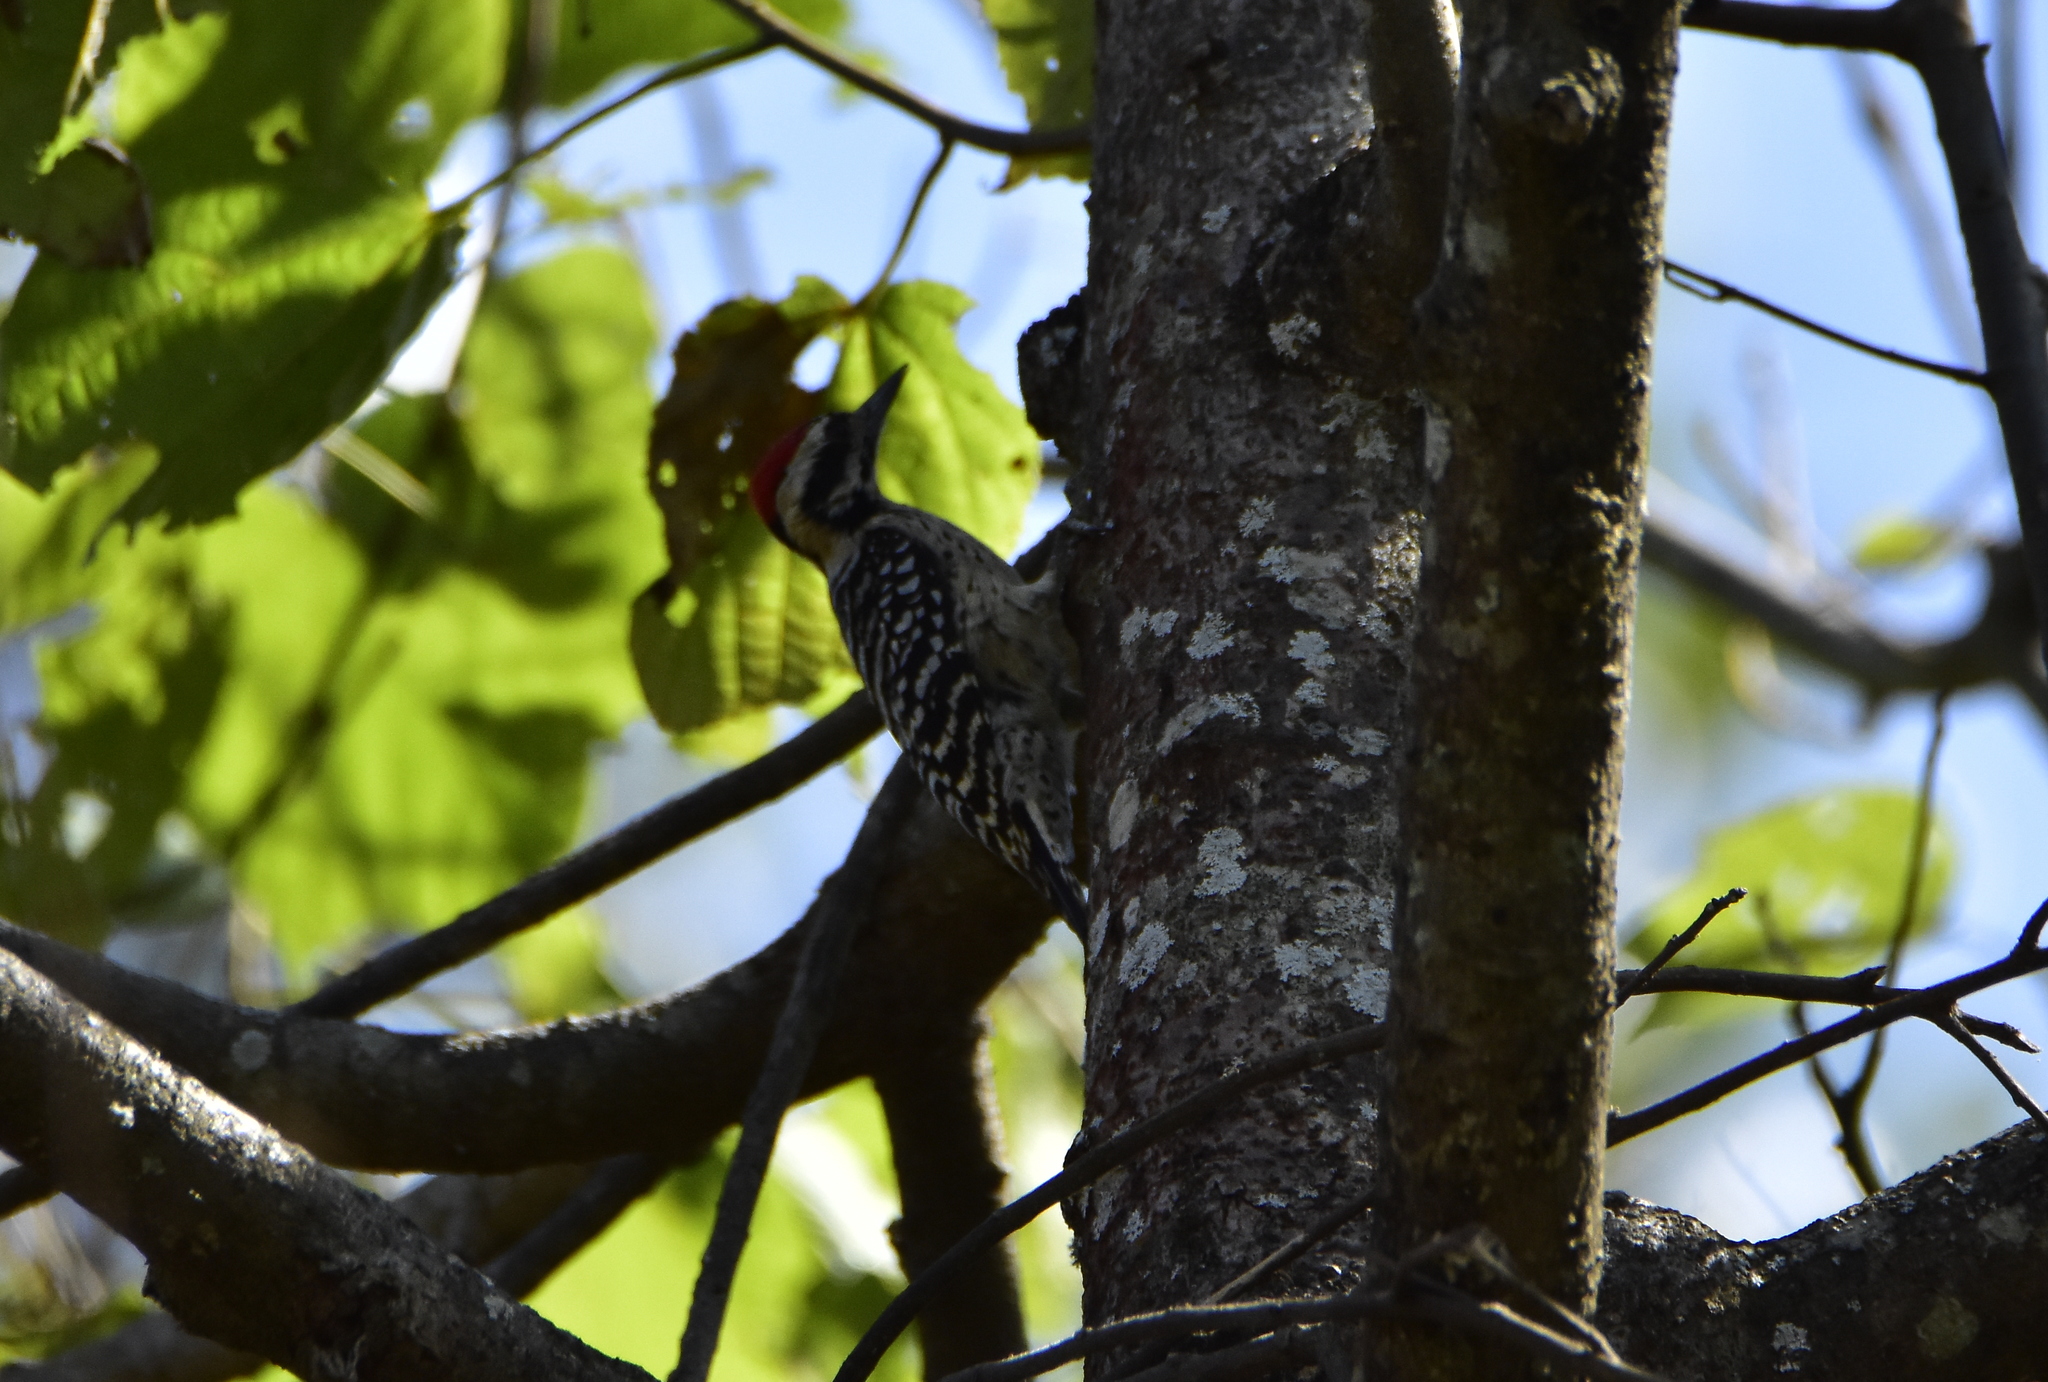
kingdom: Animalia
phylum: Chordata
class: Aves
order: Piciformes
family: Picidae
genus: Dryobates
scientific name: Dryobates scalaris
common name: Ladder-backed woodpecker
